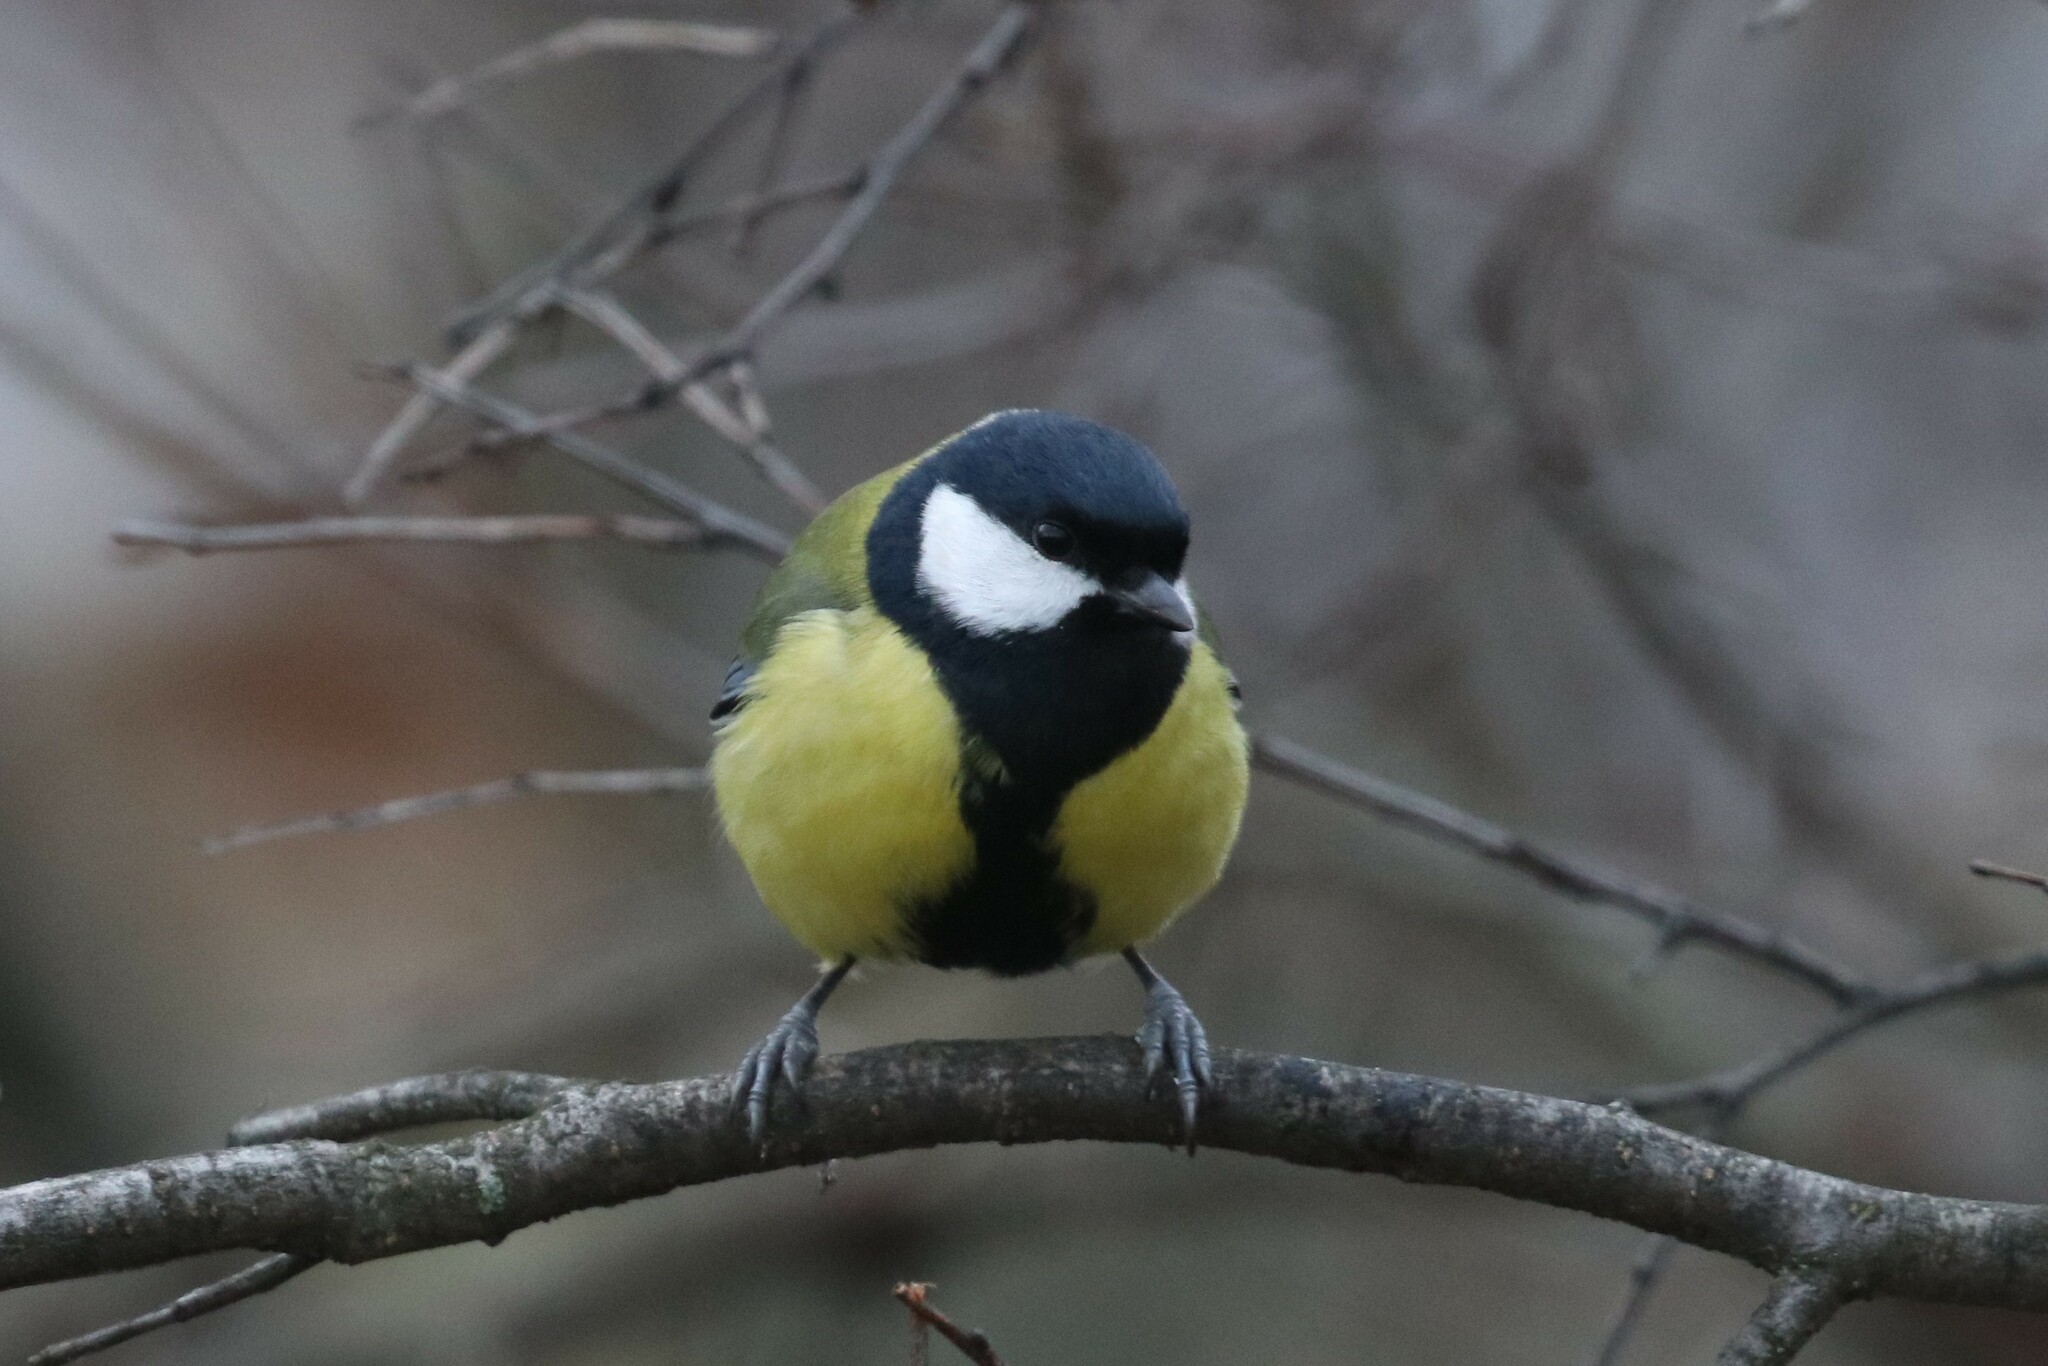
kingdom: Animalia
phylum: Chordata
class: Aves
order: Passeriformes
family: Paridae
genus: Parus
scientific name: Parus major
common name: Great tit
